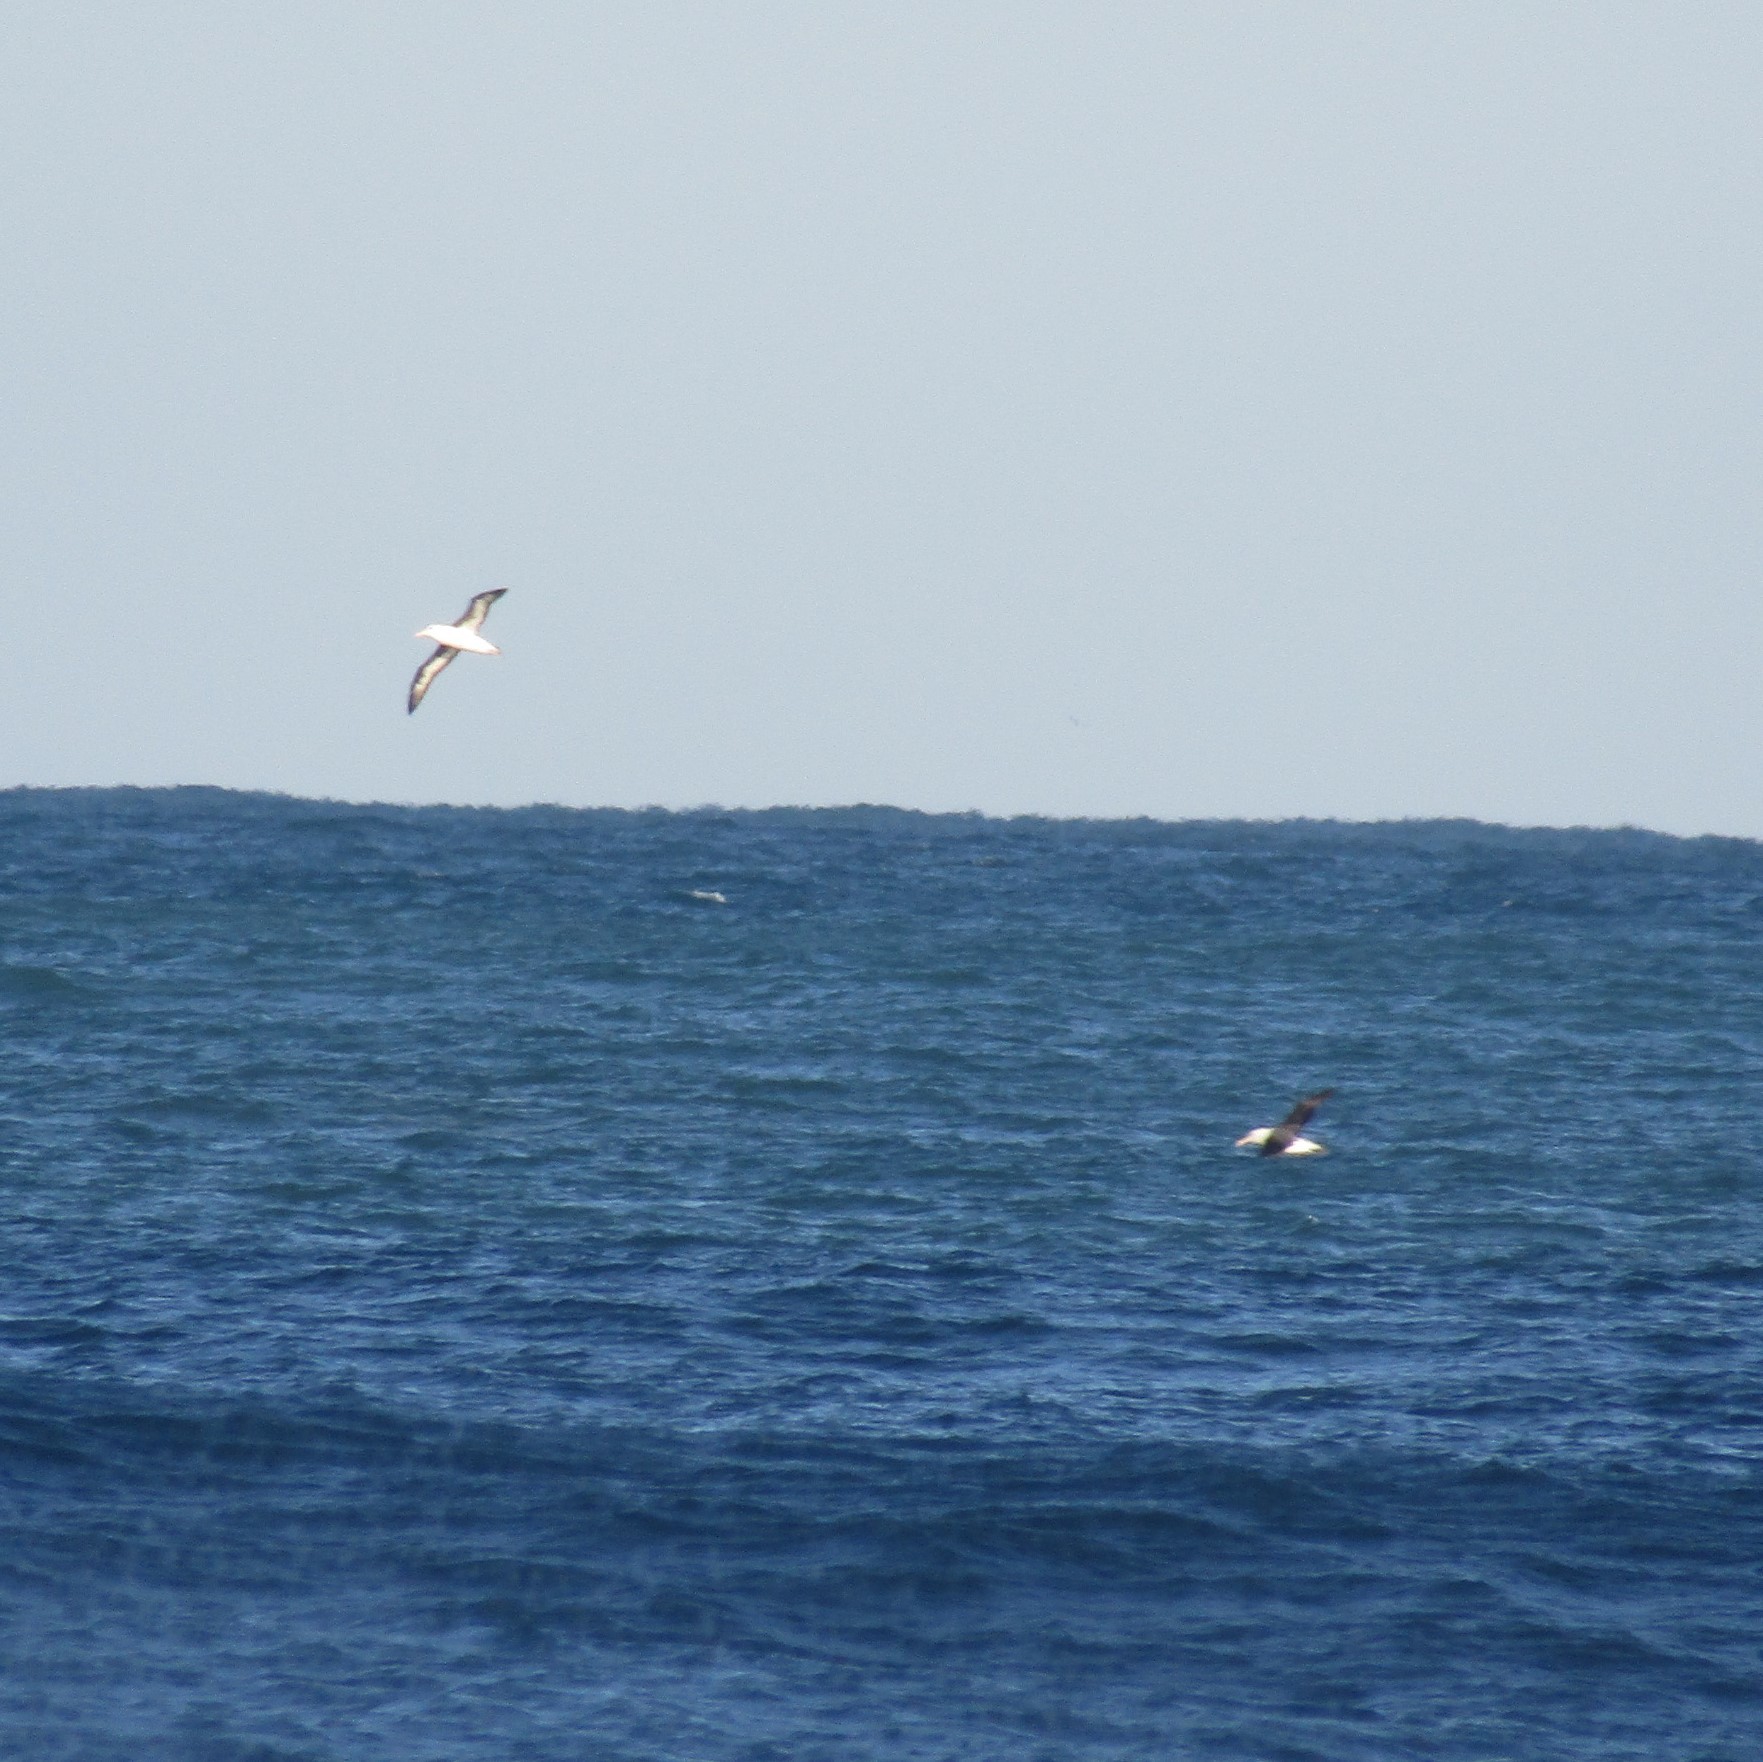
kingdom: Animalia
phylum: Chordata
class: Aves
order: Procellariiformes
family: Diomedeidae
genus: Thalassarche
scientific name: Thalassarche melanophris
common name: Black-browed albatross
